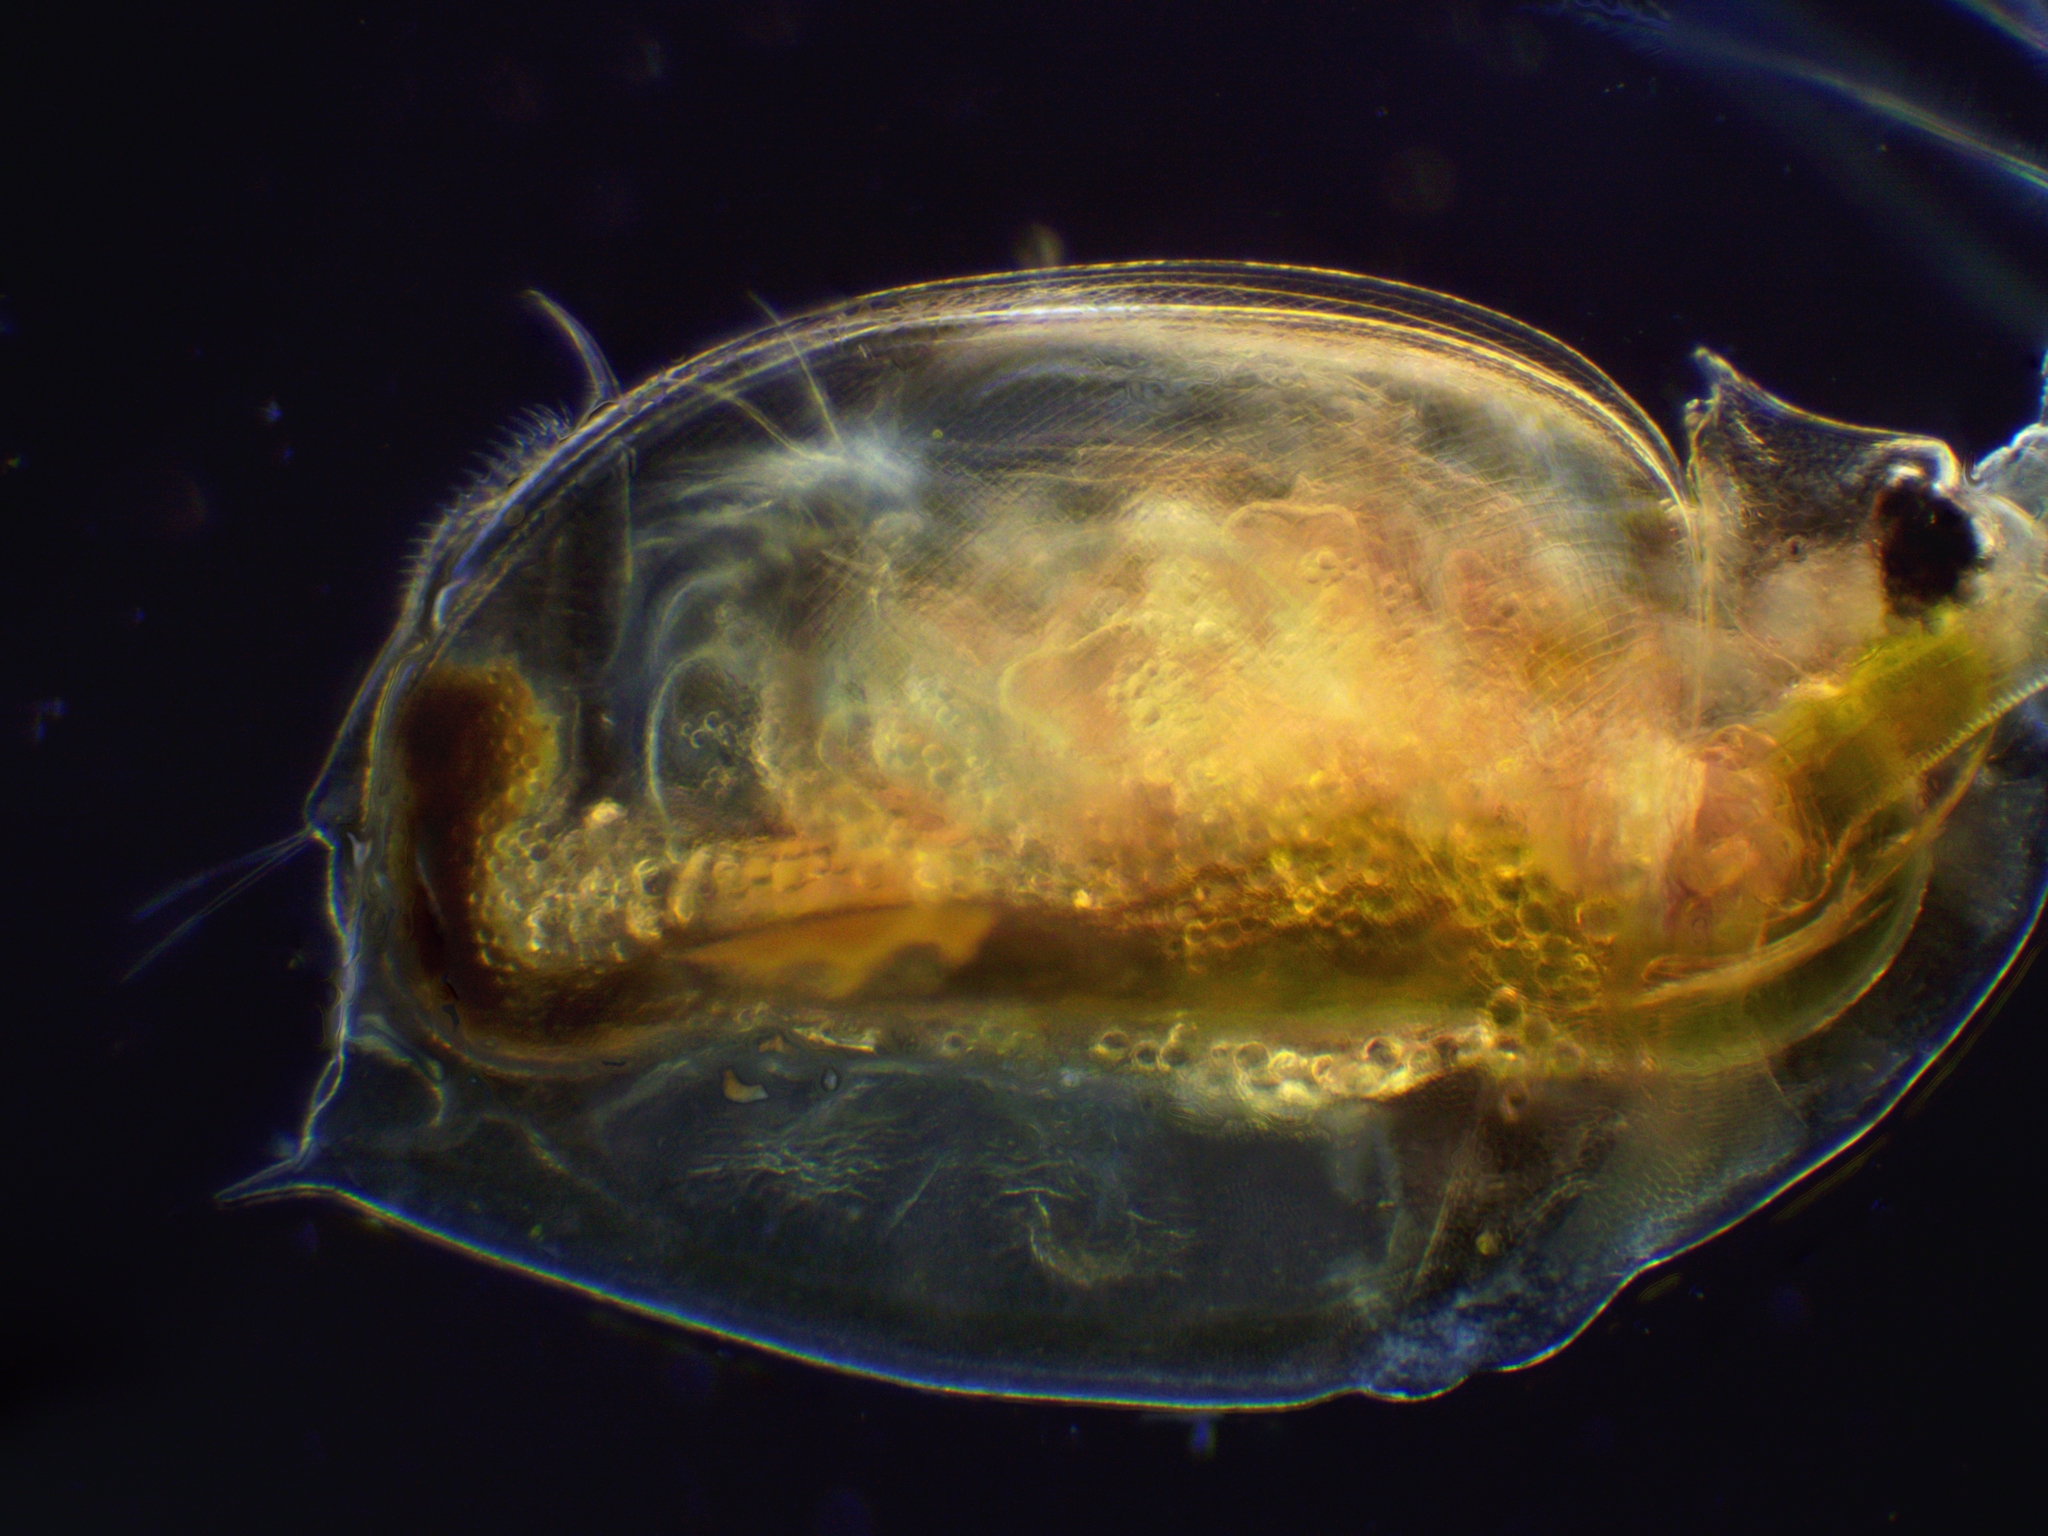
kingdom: Animalia
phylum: Arthropoda
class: Branchiopoda
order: Diplostraca
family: Daphniidae
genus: Daphnia
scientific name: Daphnia pulex
